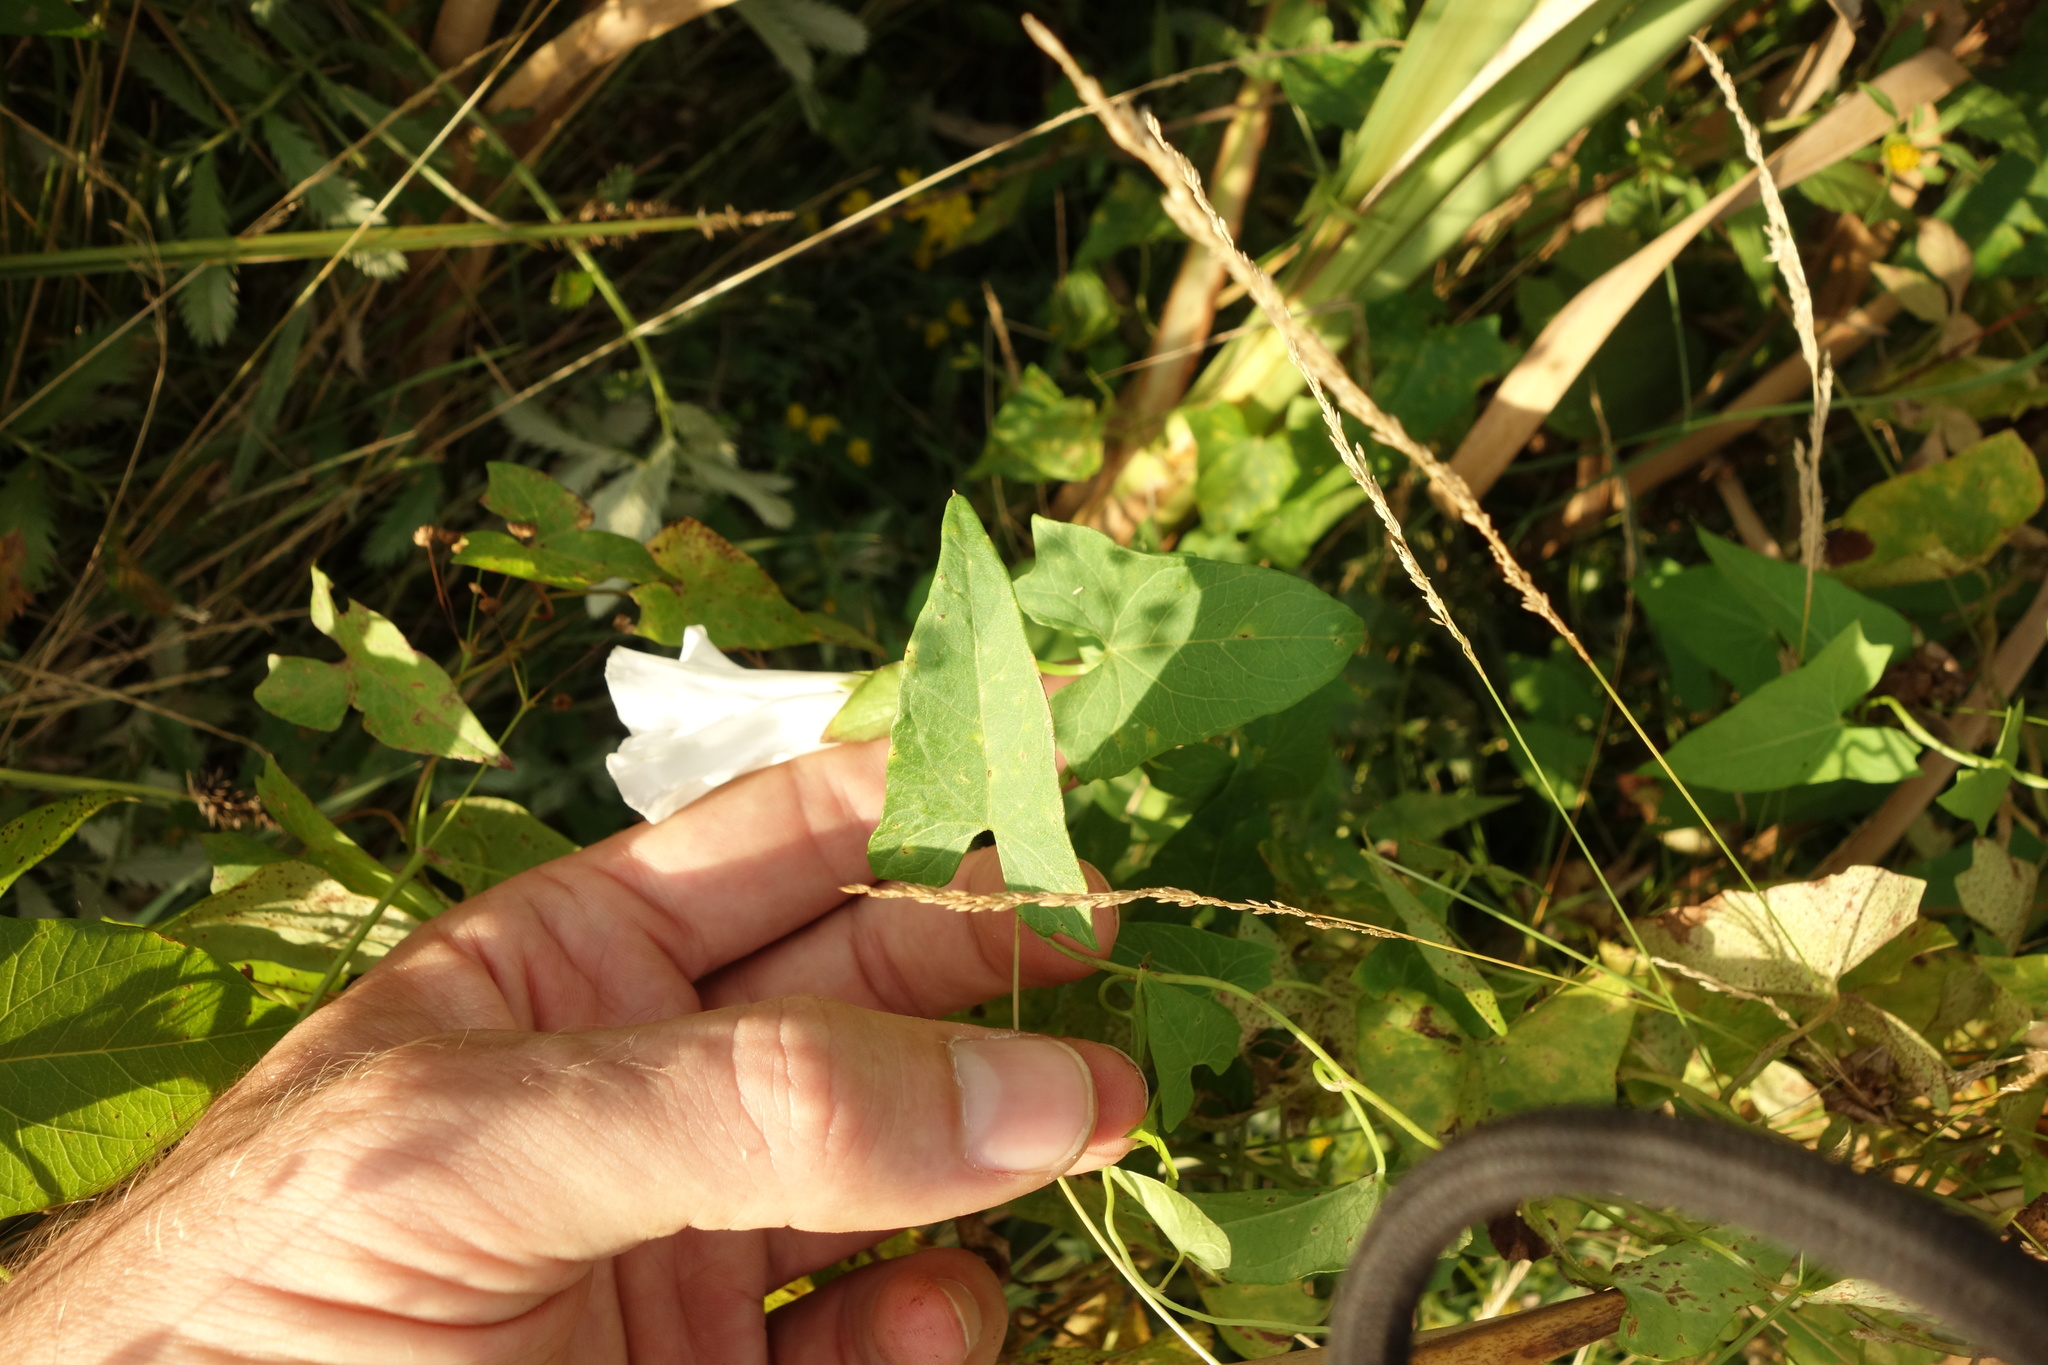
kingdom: Plantae
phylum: Tracheophyta
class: Magnoliopsida
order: Solanales
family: Convolvulaceae
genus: Calystegia
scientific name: Calystegia sepium
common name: Hedge bindweed
